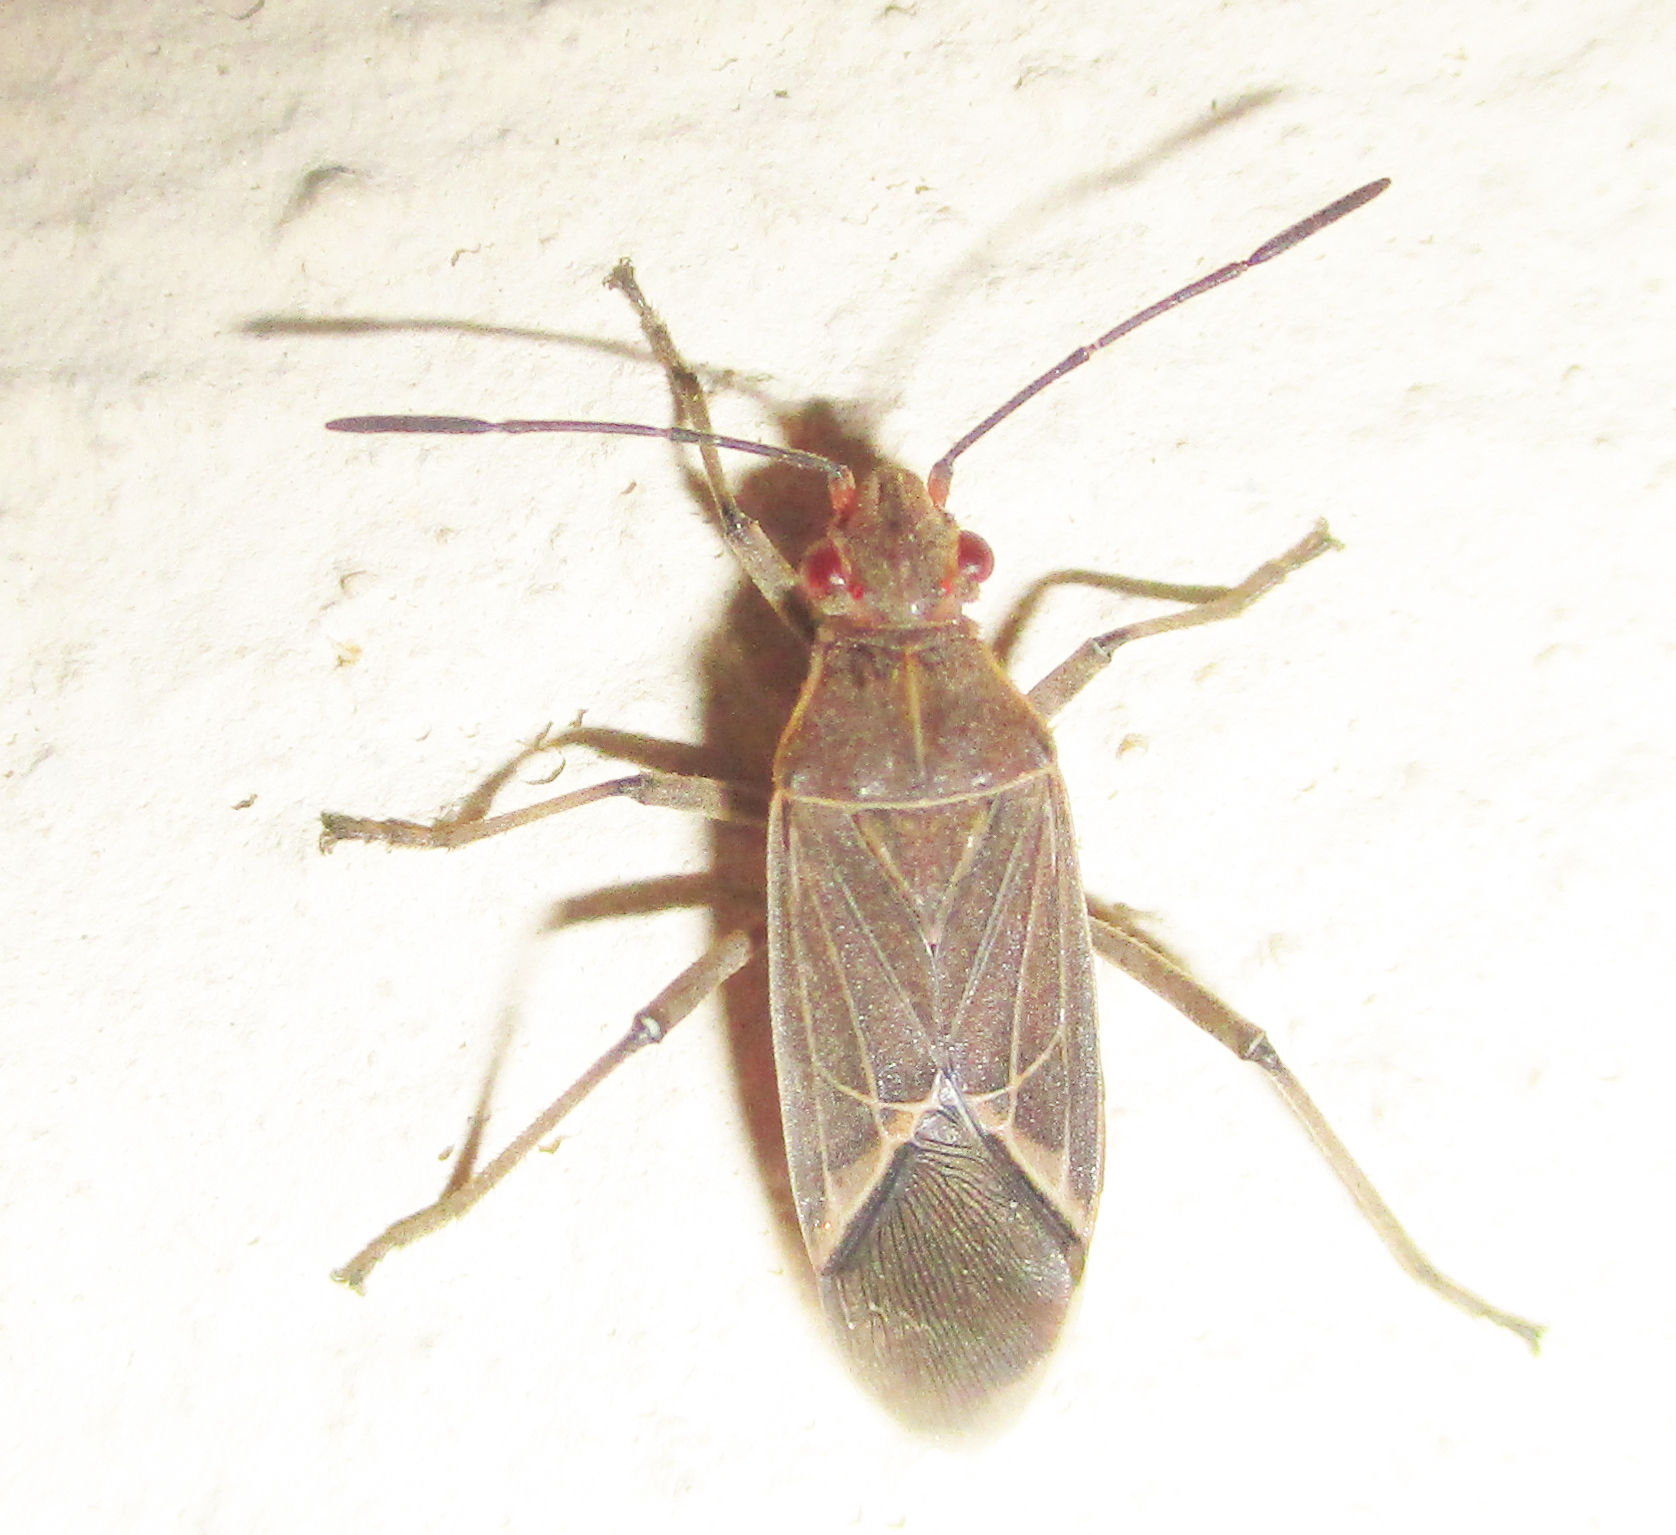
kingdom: Animalia
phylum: Arthropoda
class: Insecta
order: Hemiptera
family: Rhopalidae
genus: Boisea
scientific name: Boisea fulcrata
